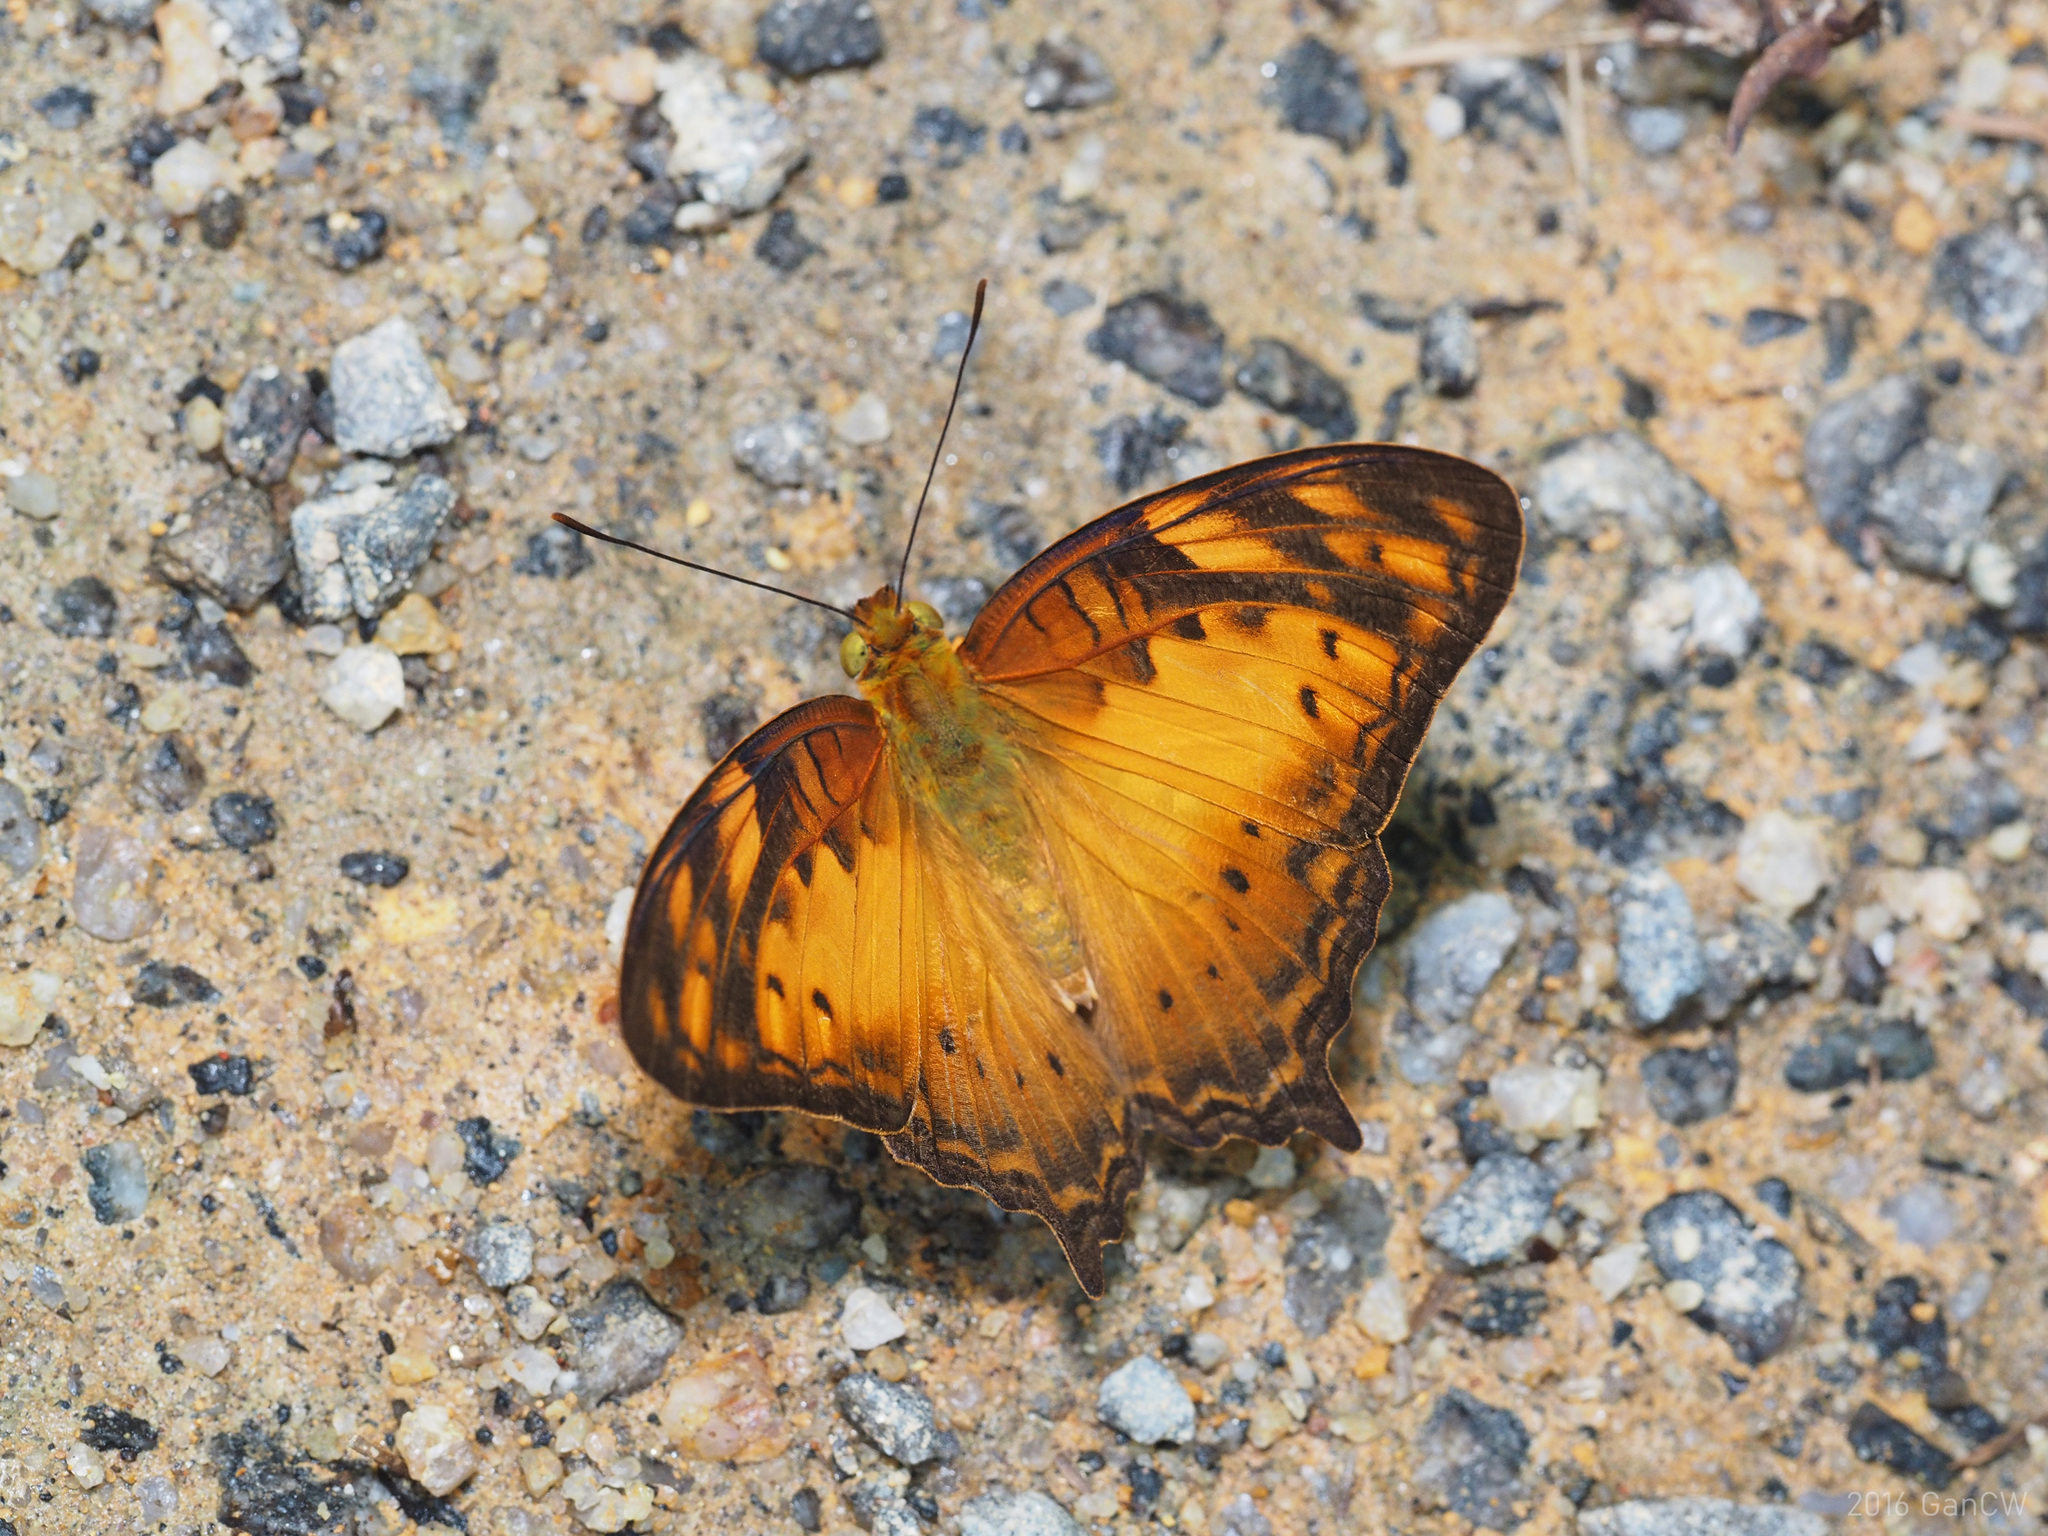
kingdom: Animalia
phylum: Arthropoda
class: Insecta
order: Lepidoptera
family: Nymphalidae
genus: Vagrans
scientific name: Vagrans egista
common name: Tailed rustic
